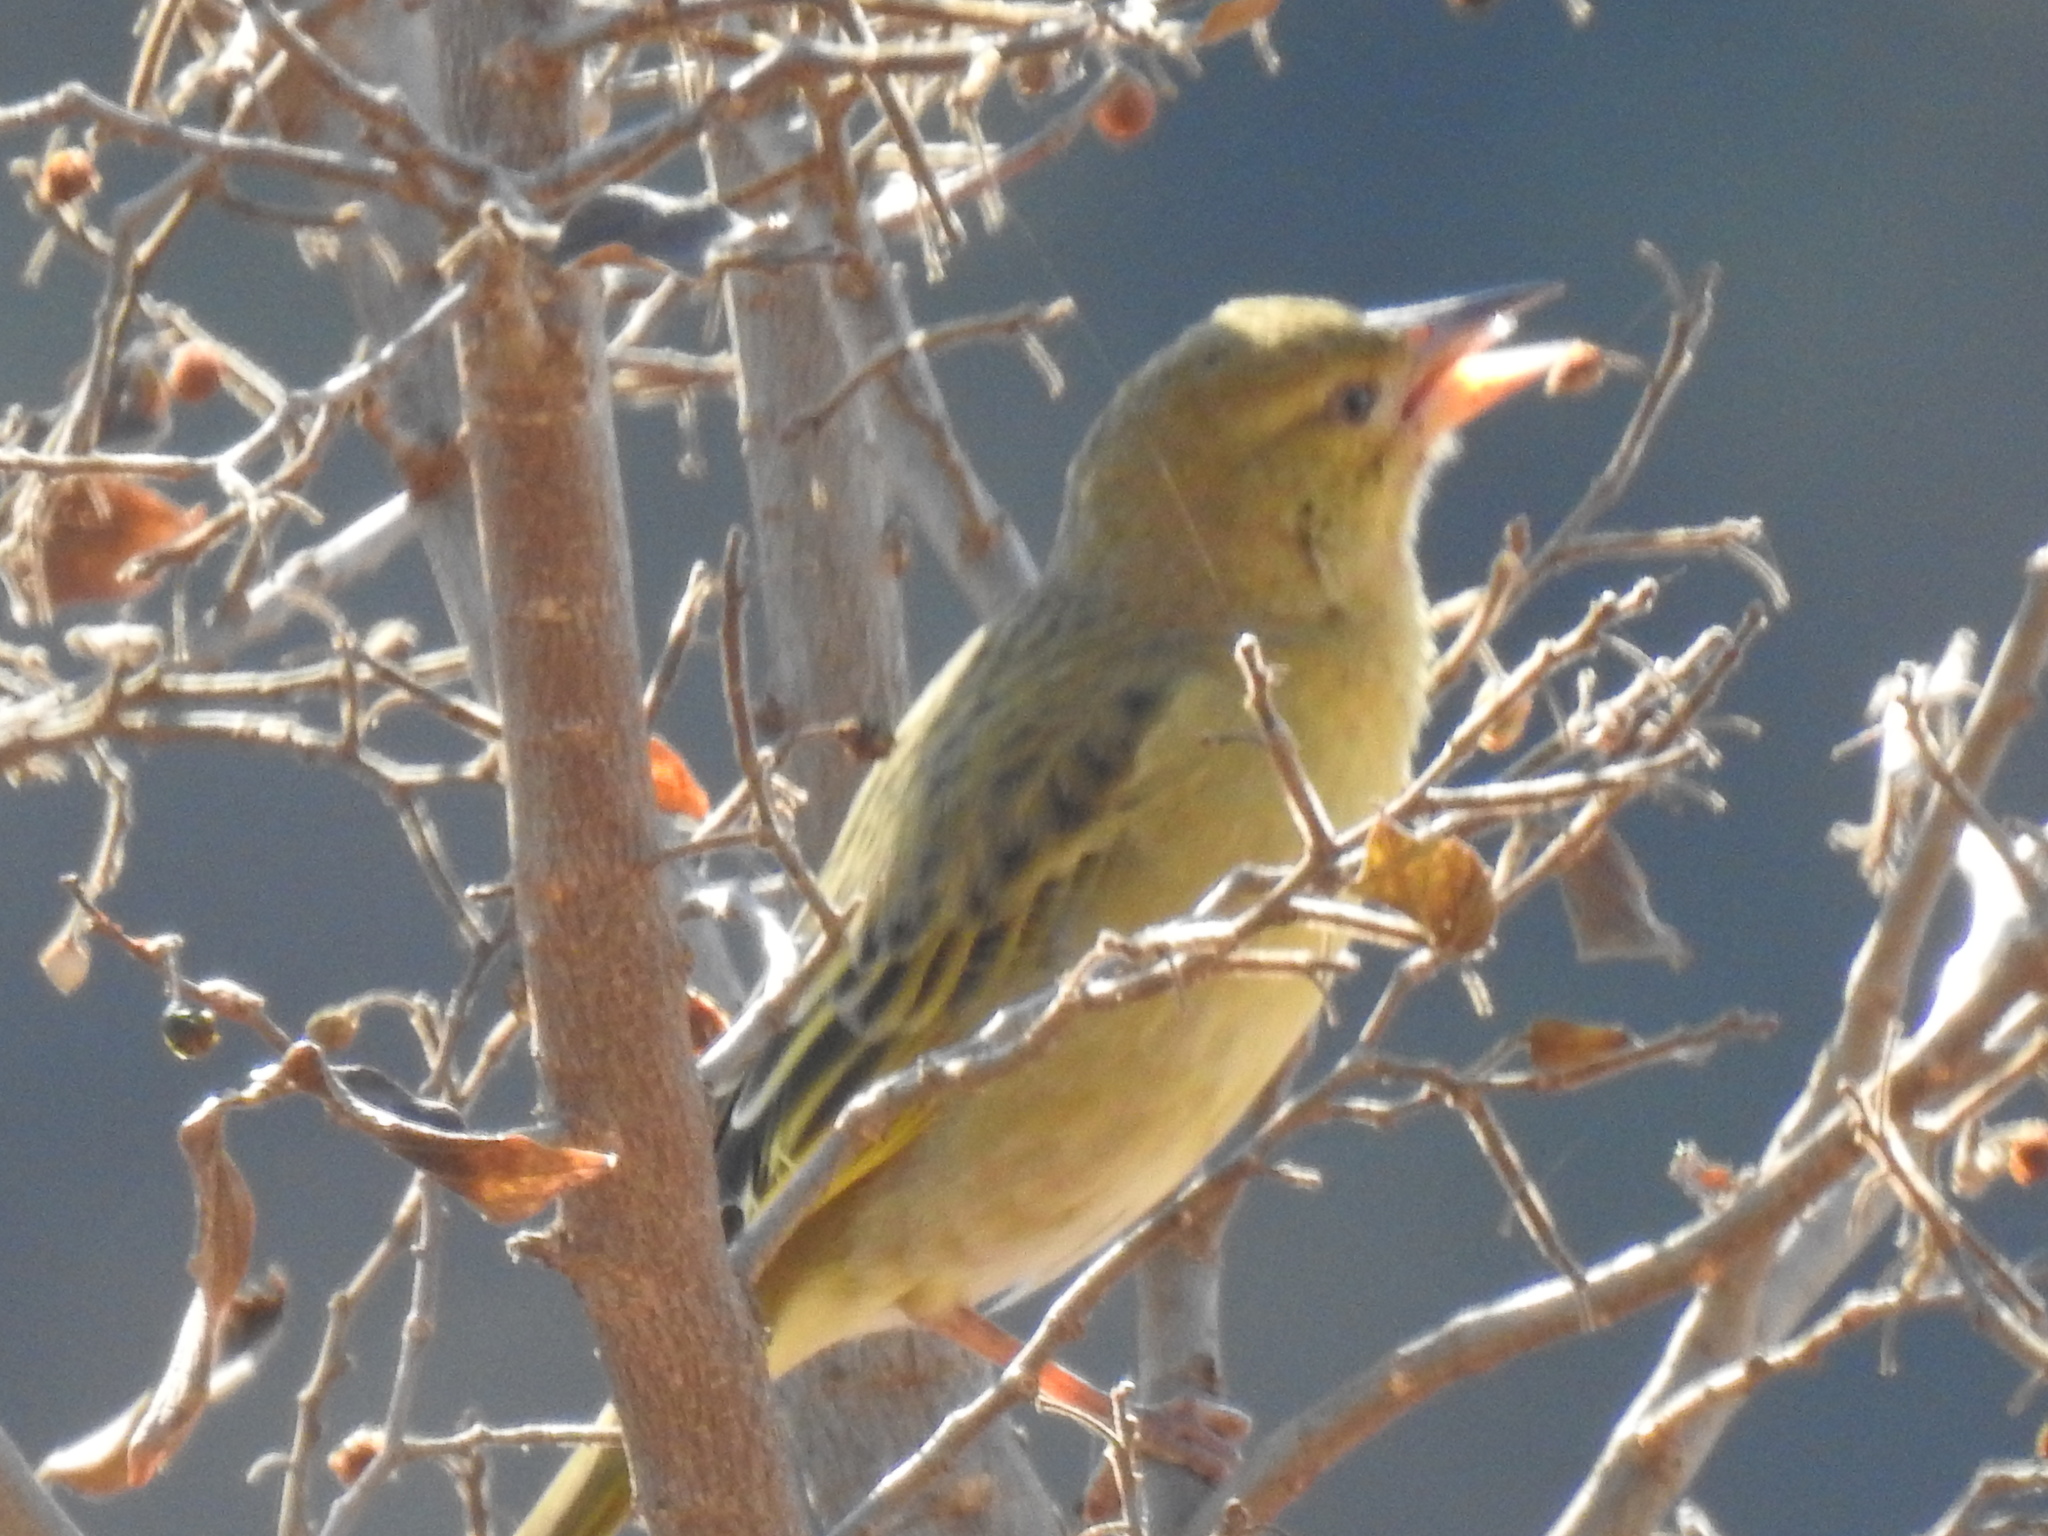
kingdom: Animalia
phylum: Chordata
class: Aves
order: Passeriformes
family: Ploceidae
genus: Ploceus
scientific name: Ploceus velatus
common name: Southern masked weaver
